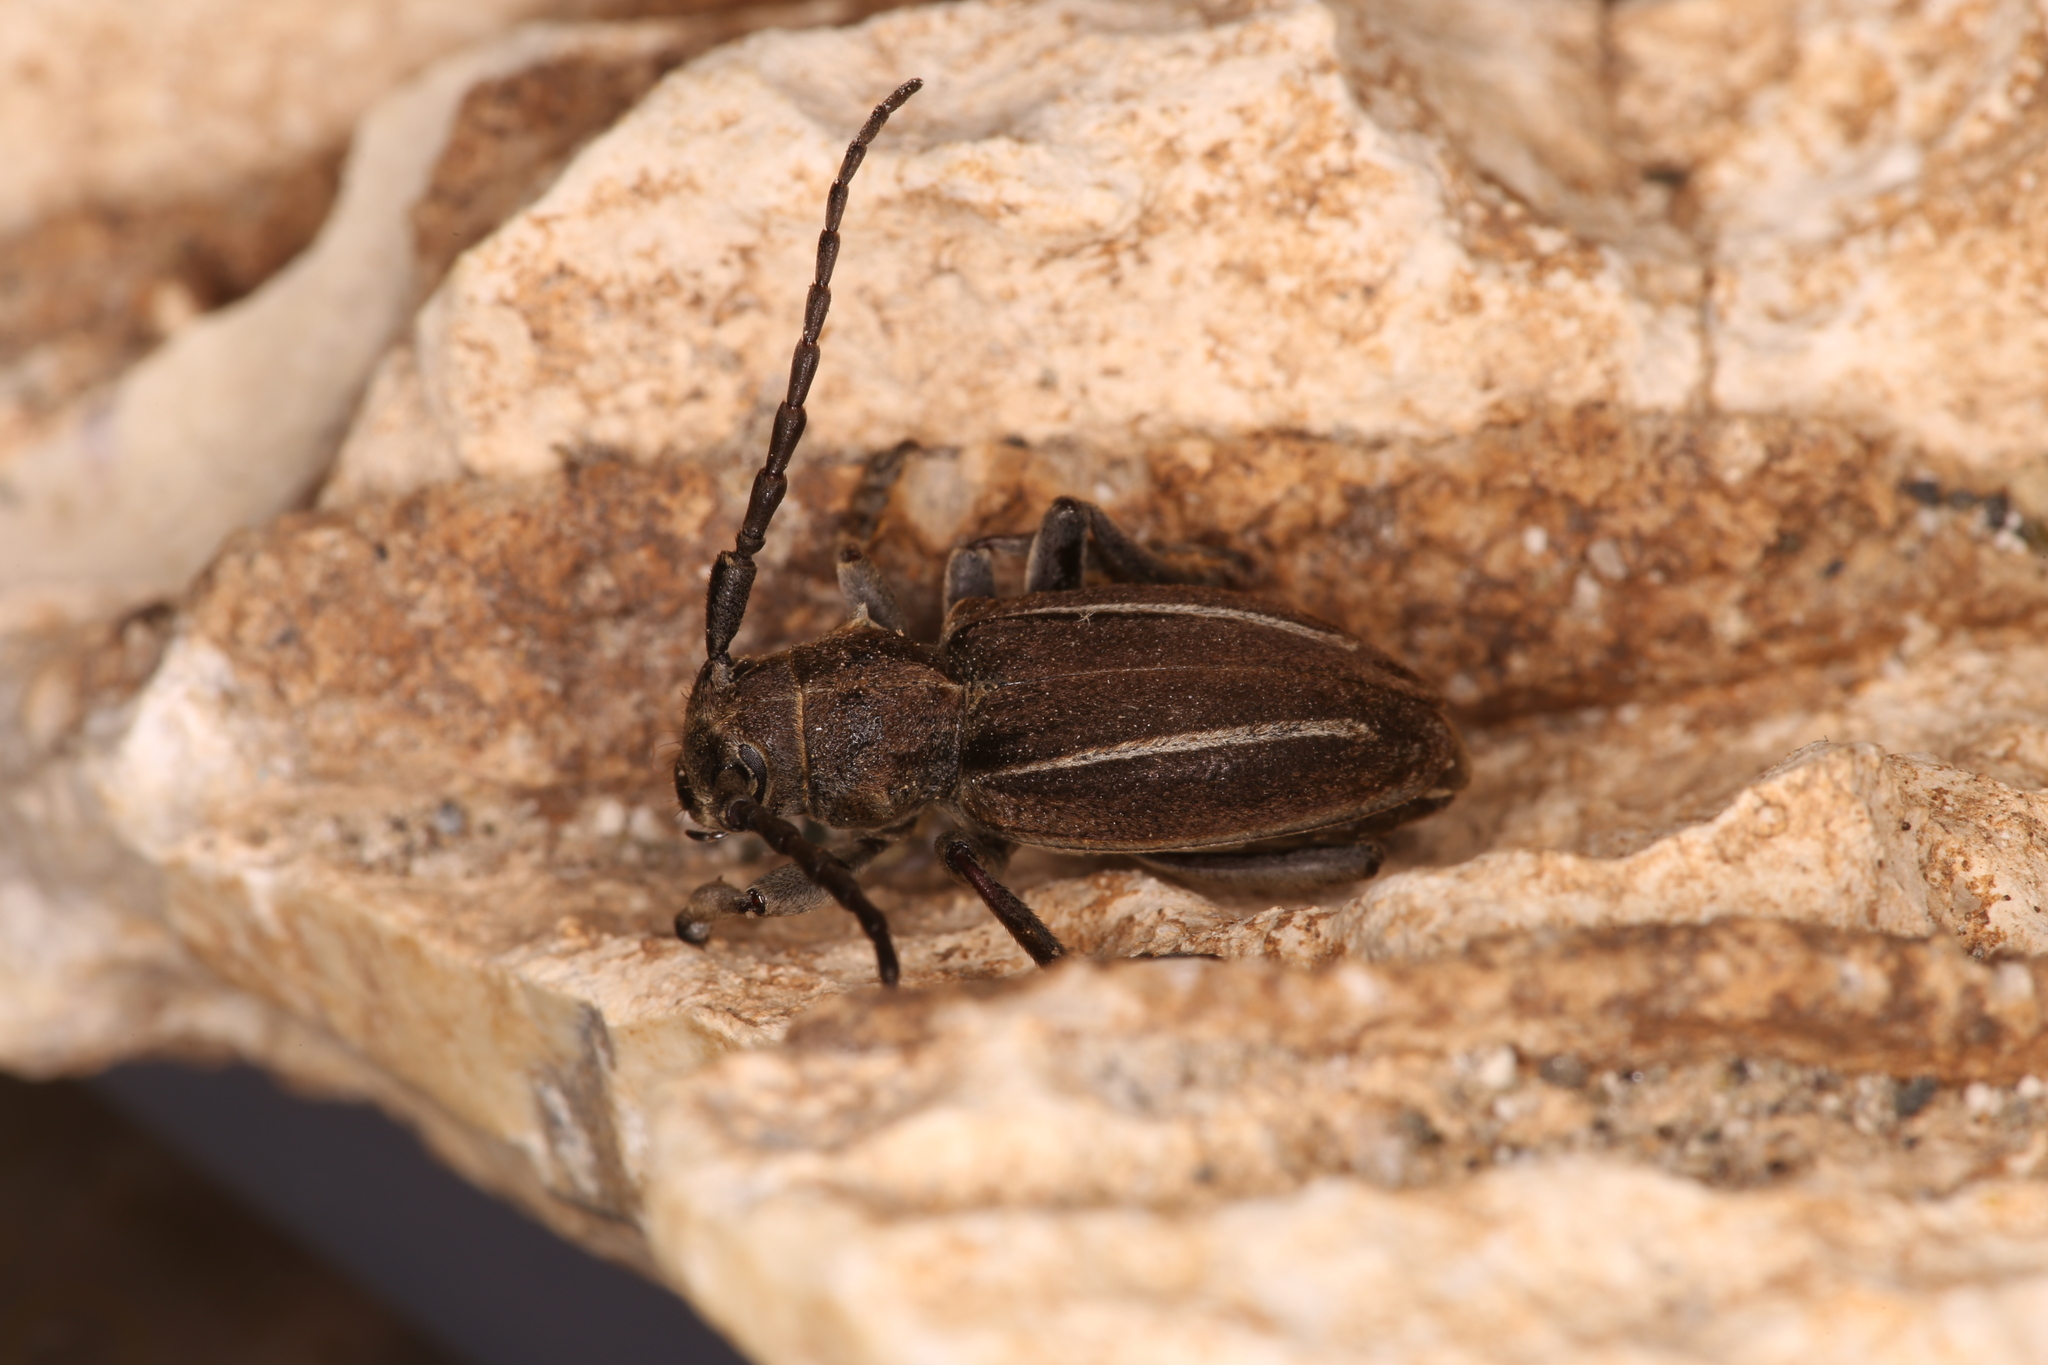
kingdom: Animalia
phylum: Arthropoda
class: Insecta
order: Coleoptera
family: Cerambycidae
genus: Neodorcadion
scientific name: Neodorcadion bilineatum
